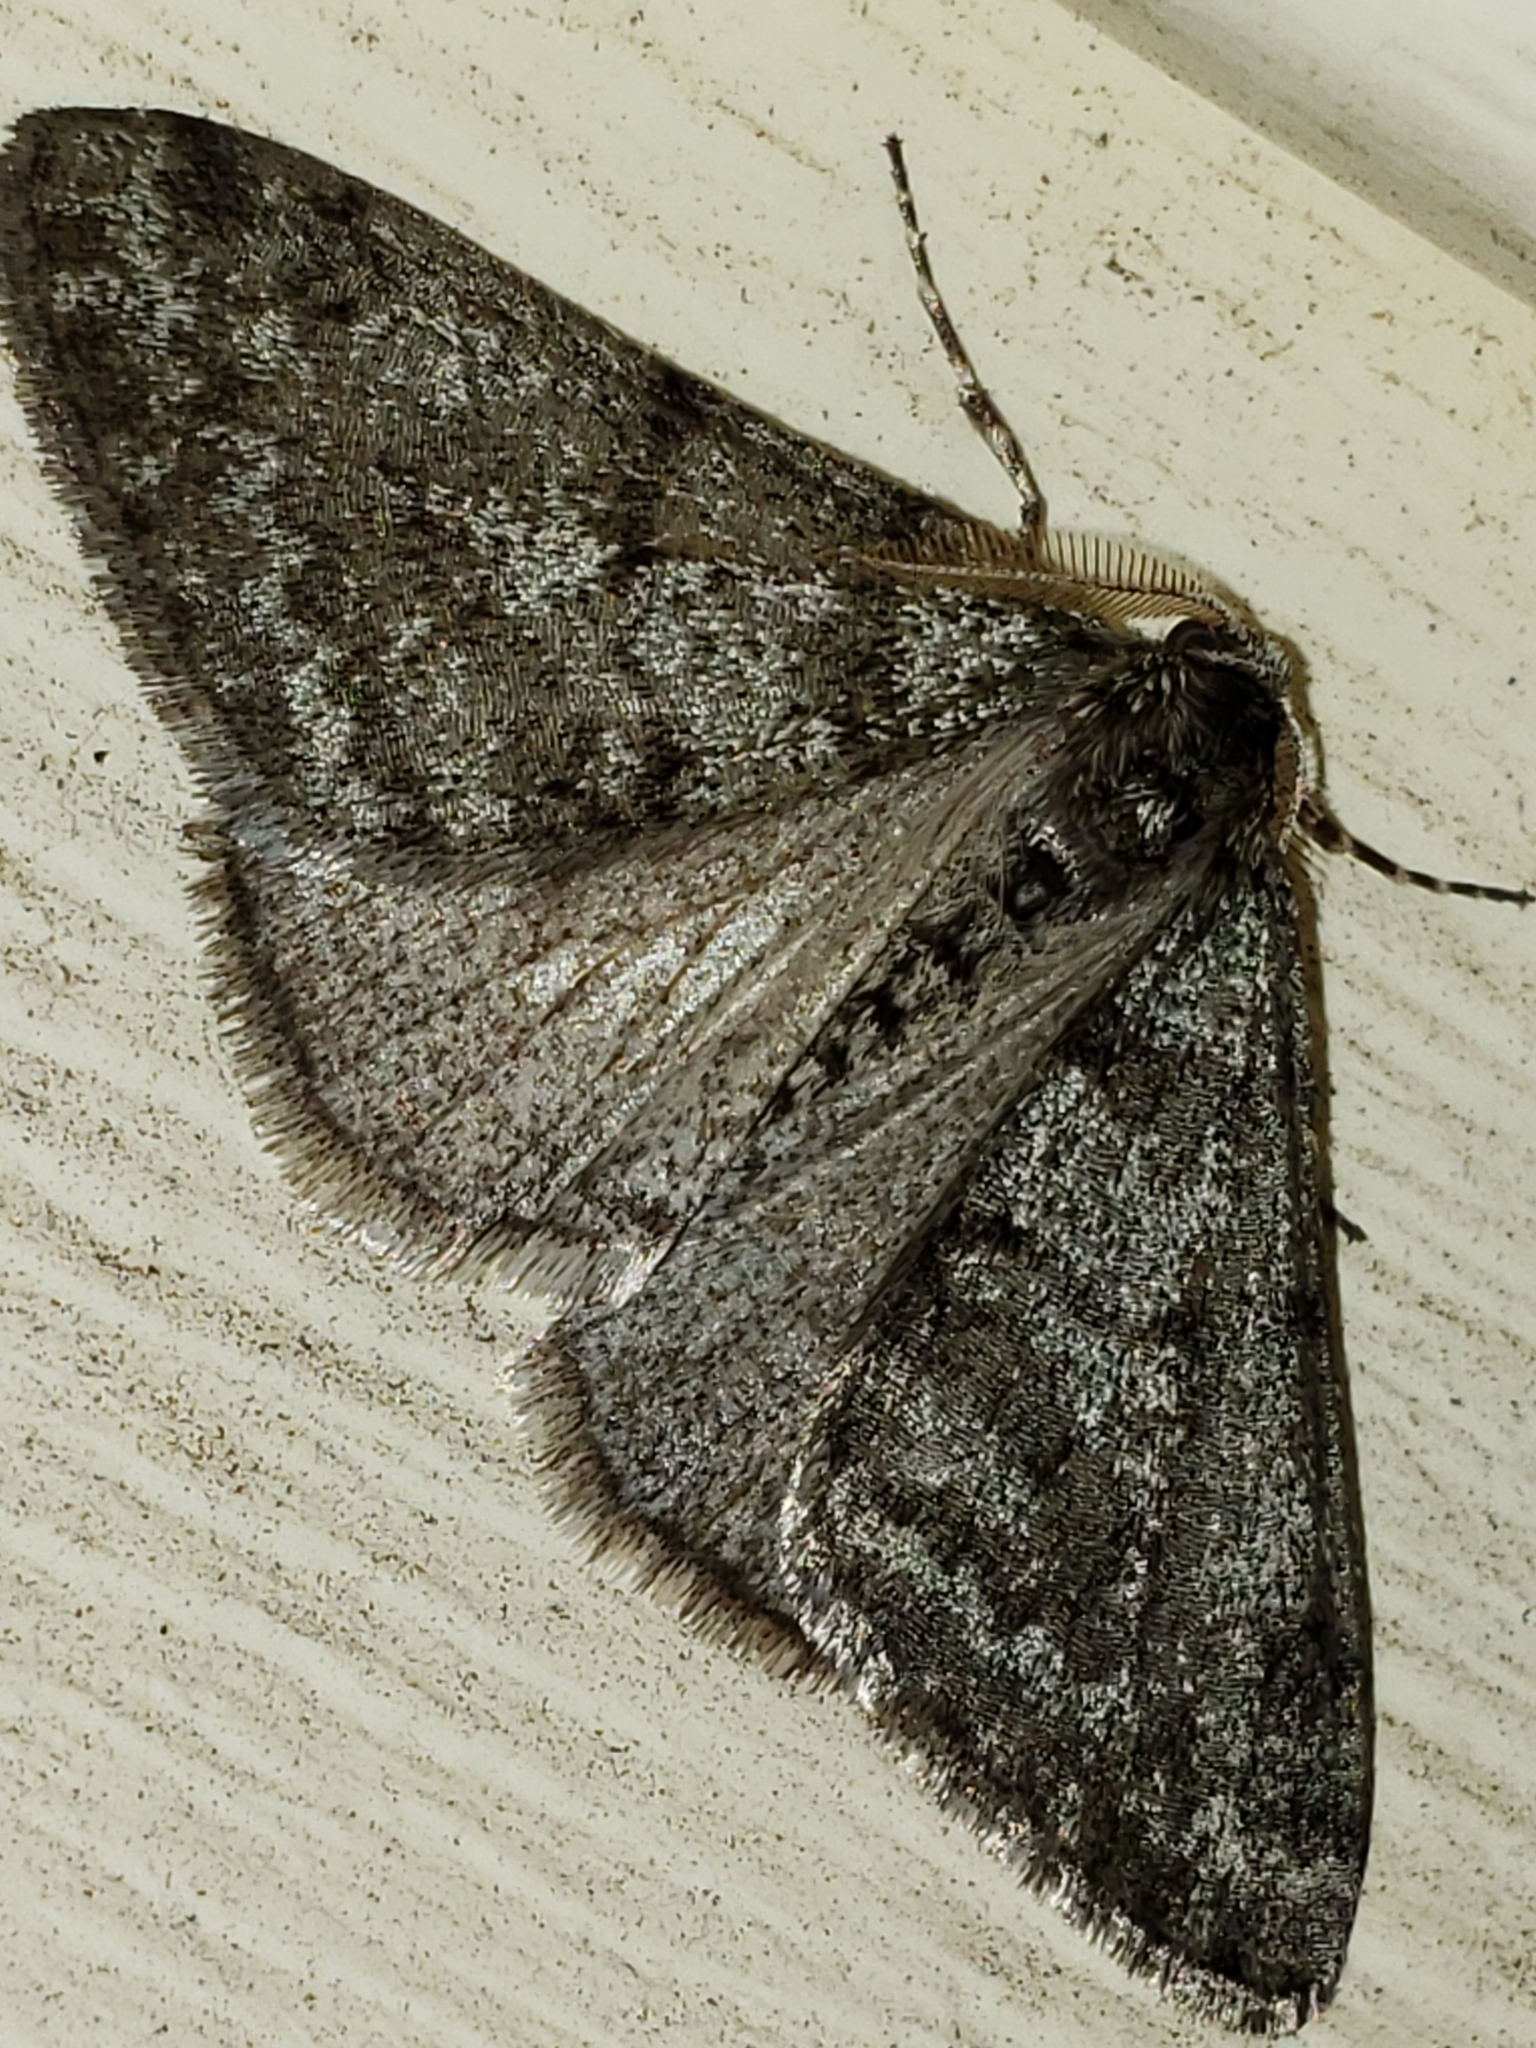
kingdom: Animalia
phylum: Arthropoda
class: Insecta
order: Lepidoptera
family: Geometridae
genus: Phigalia
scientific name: Phigalia strigataria
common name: Small phigalia
